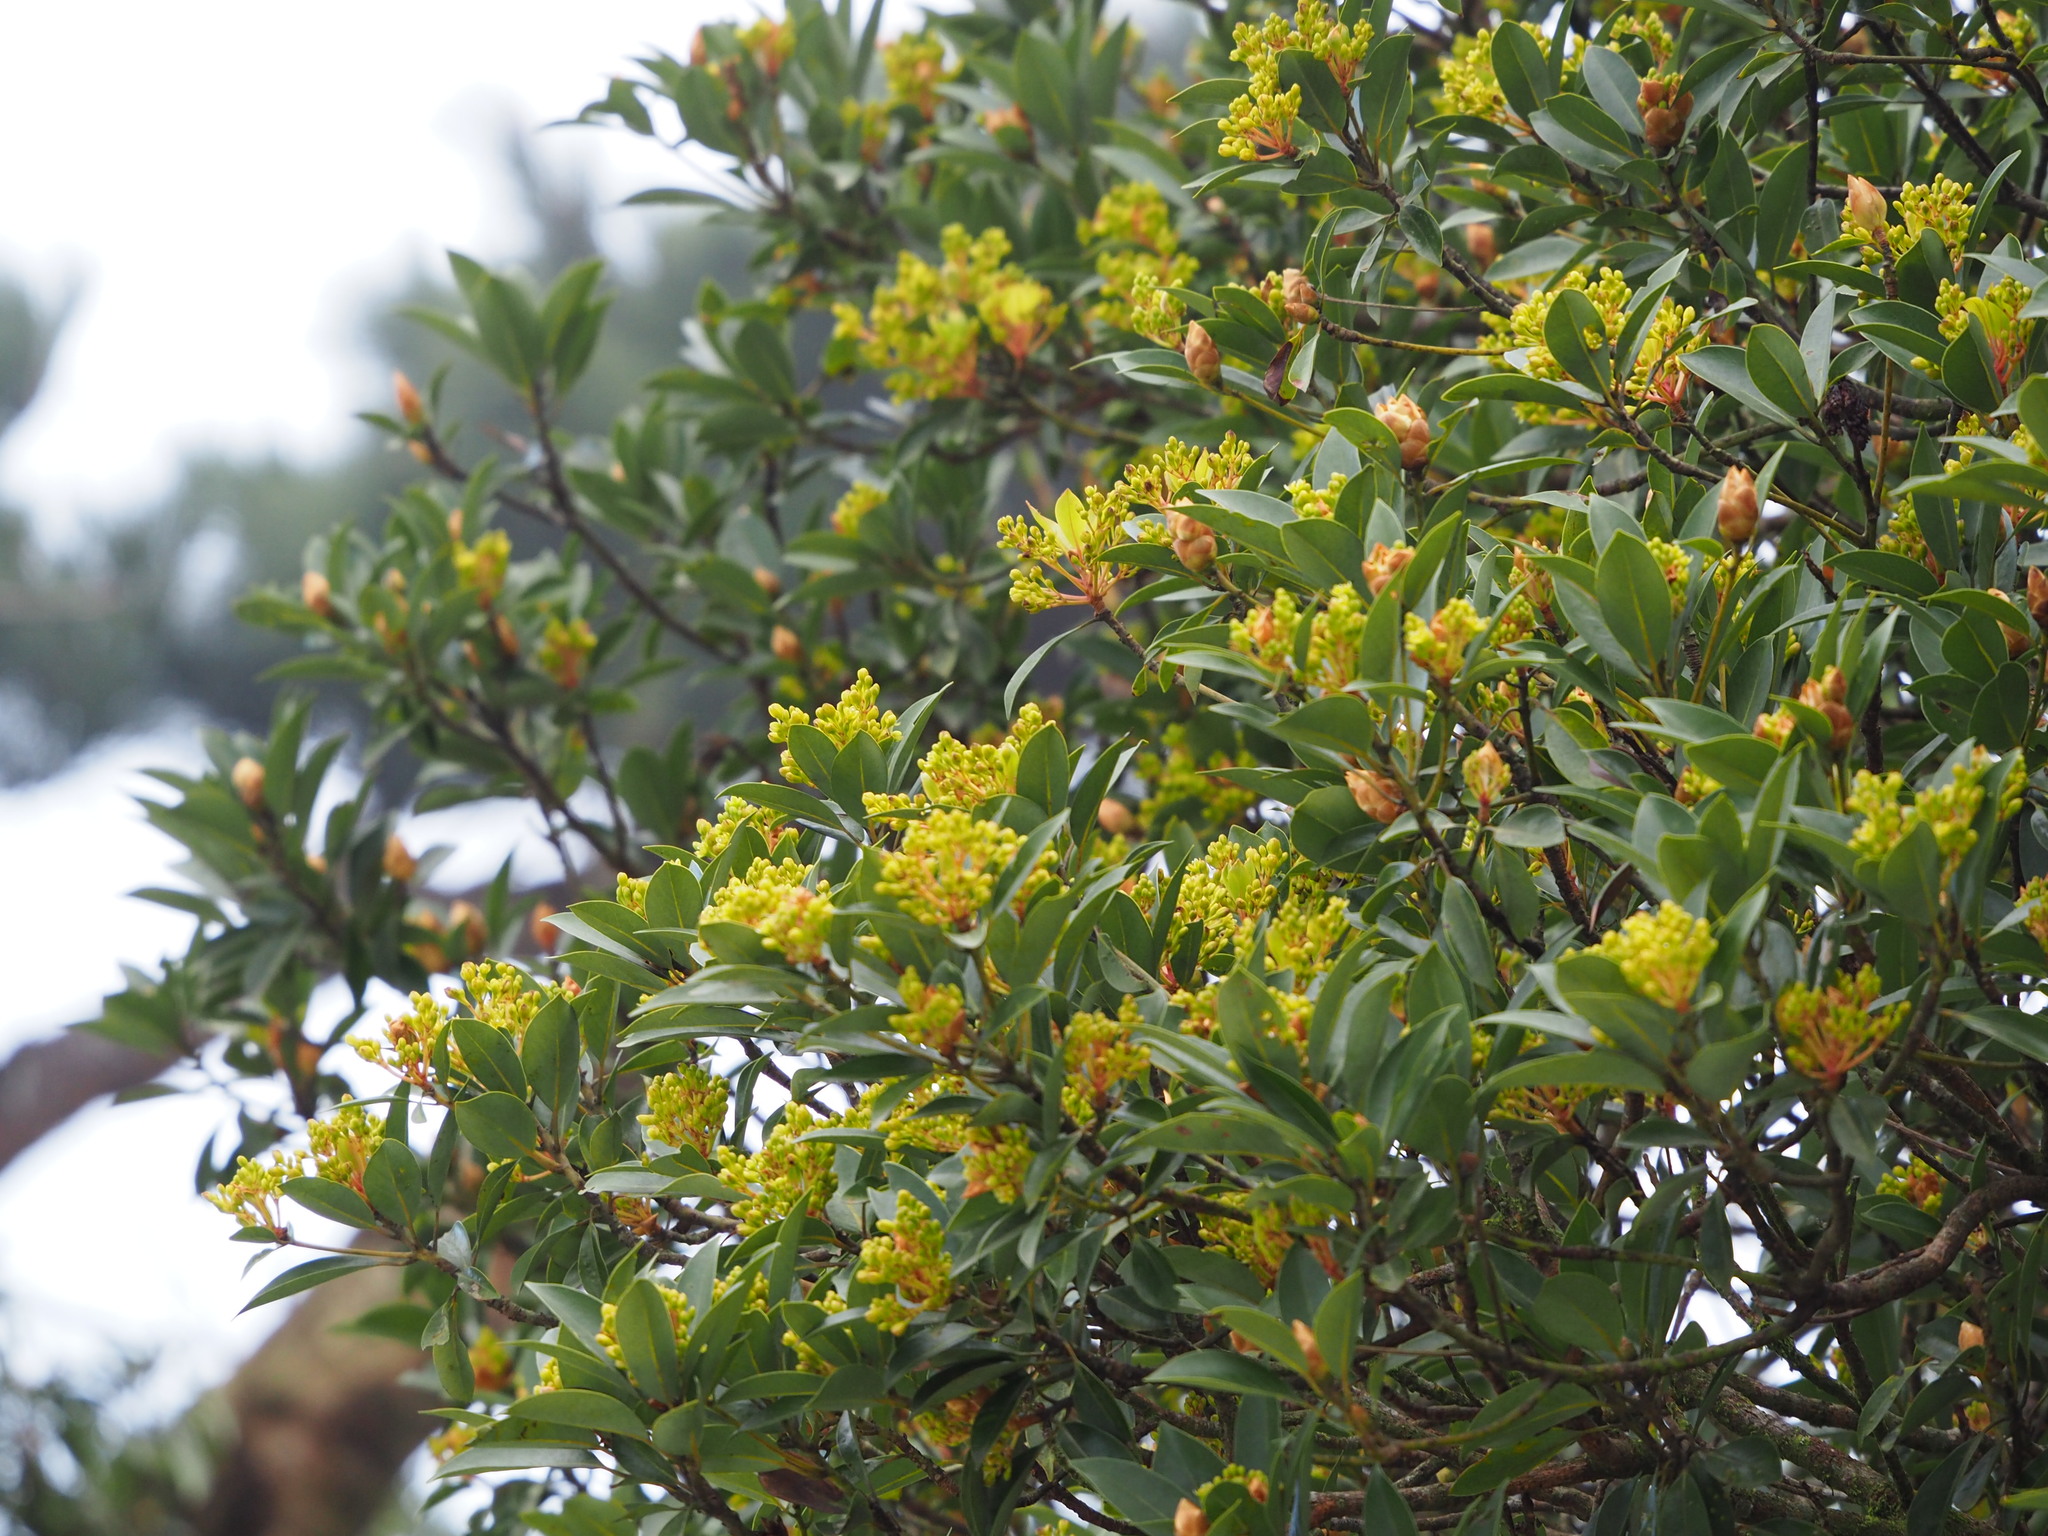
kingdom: Plantae
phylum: Tracheophyta
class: Magnoliopsida
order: Laurales
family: Lauraceae
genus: Machilus
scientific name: Machilus thunbergii
